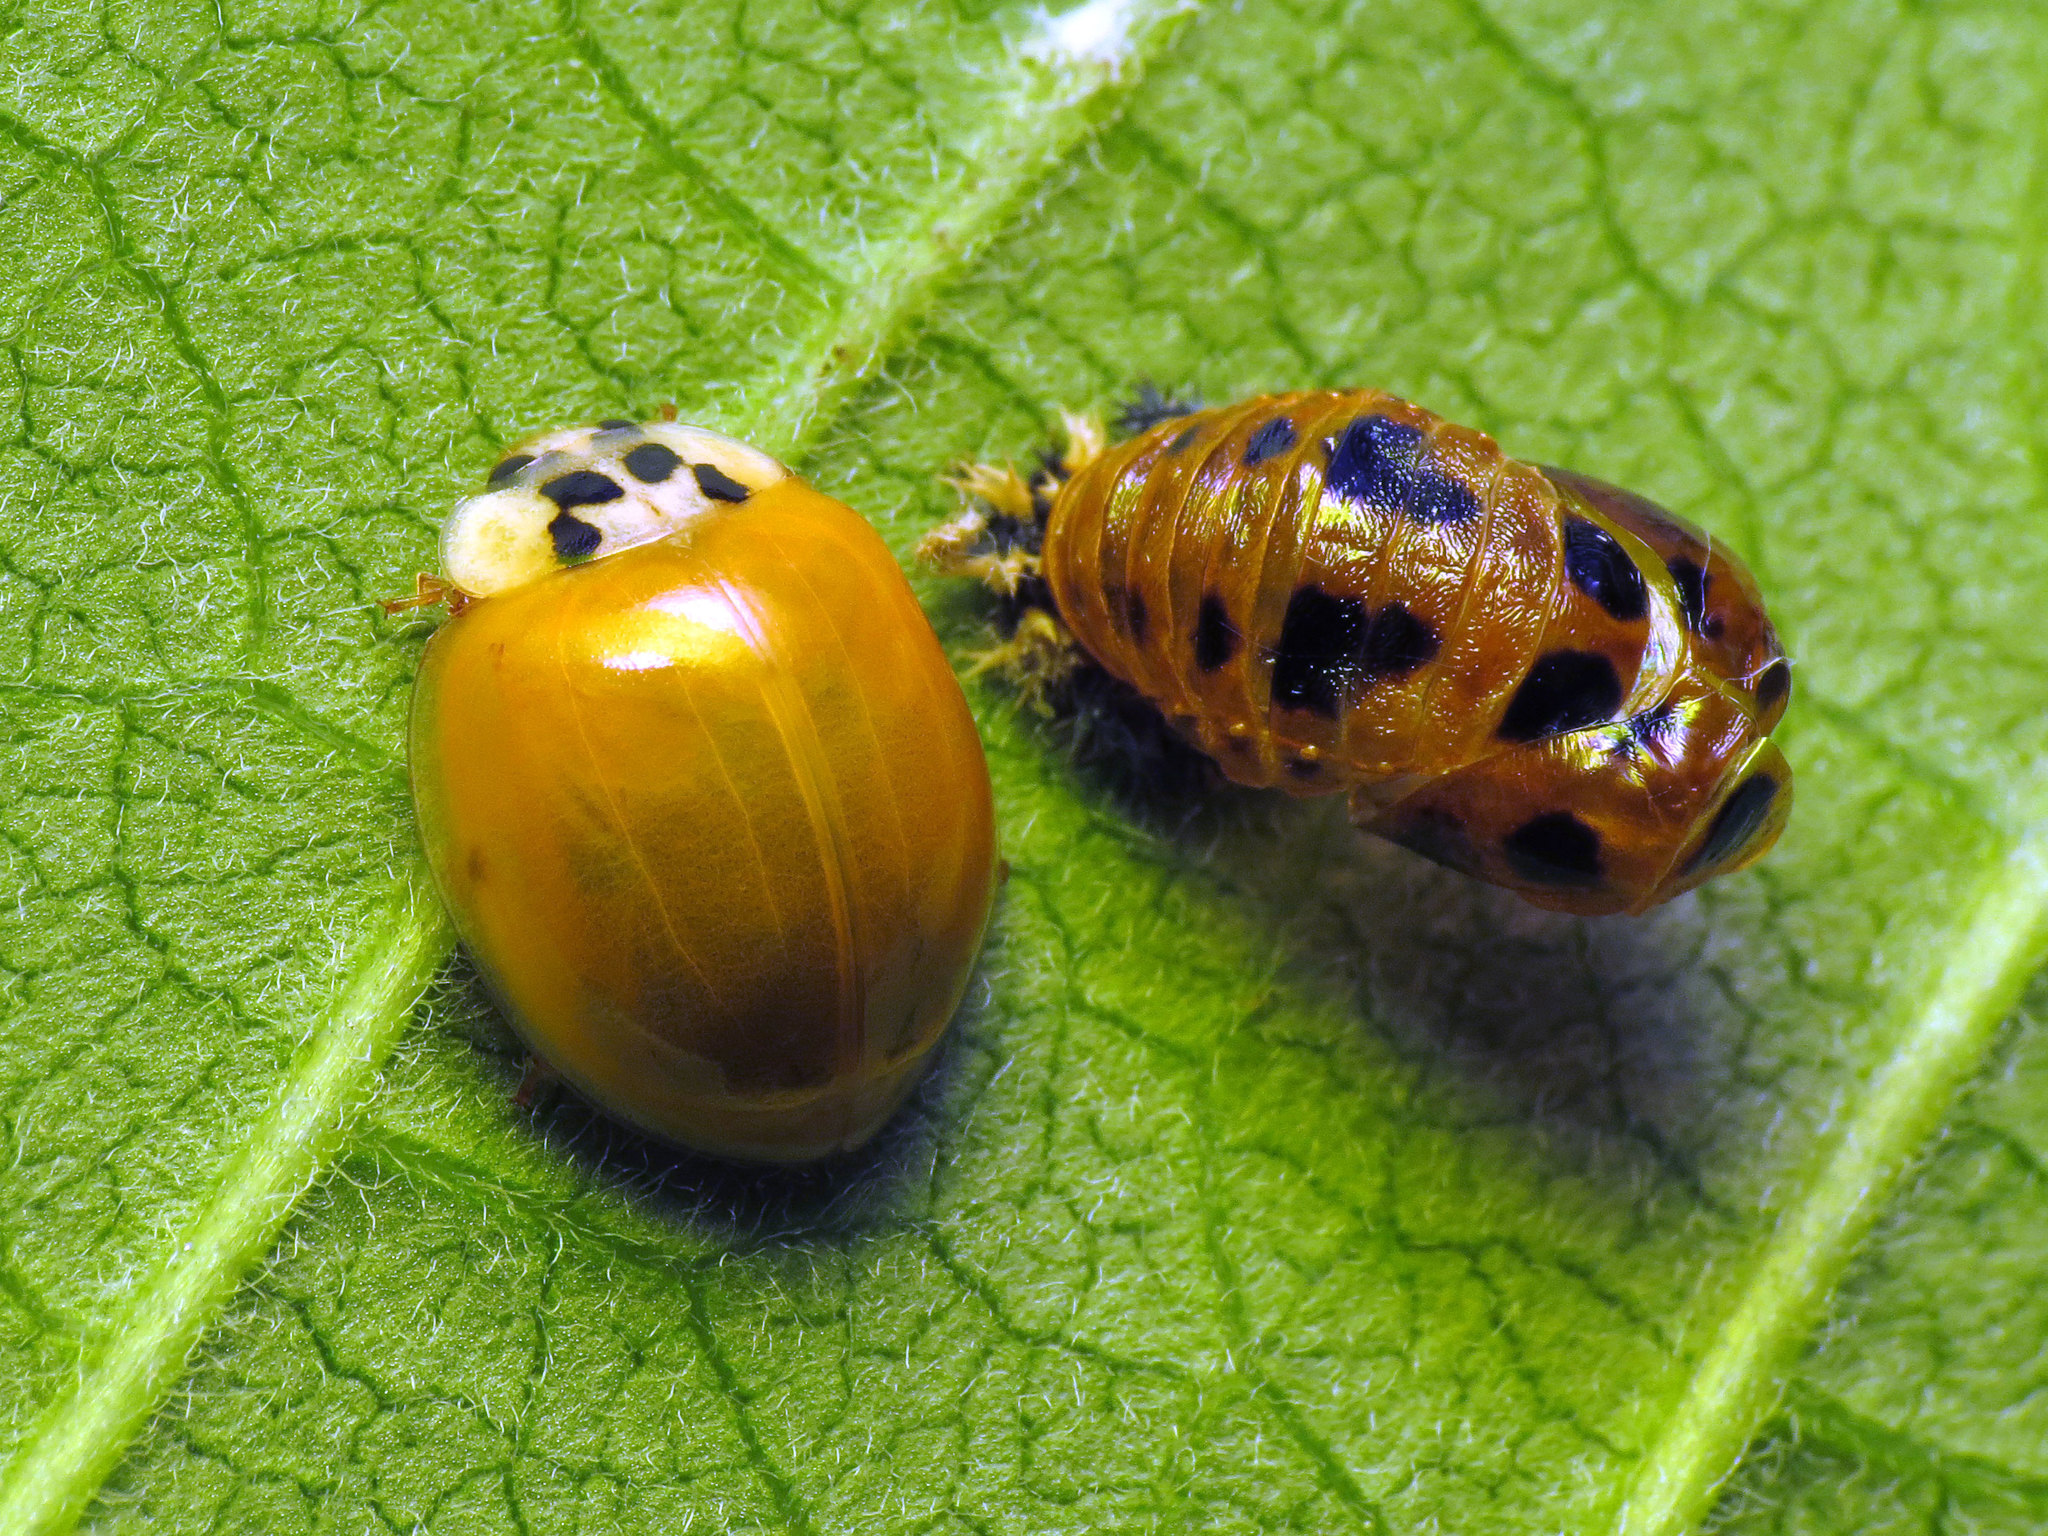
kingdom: Animalia
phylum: Arthropoda
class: Insecta
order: Coleoptera
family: Coccinellidae
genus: Harmonia
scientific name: Harmonia axyridis
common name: Harlequin ladybird
